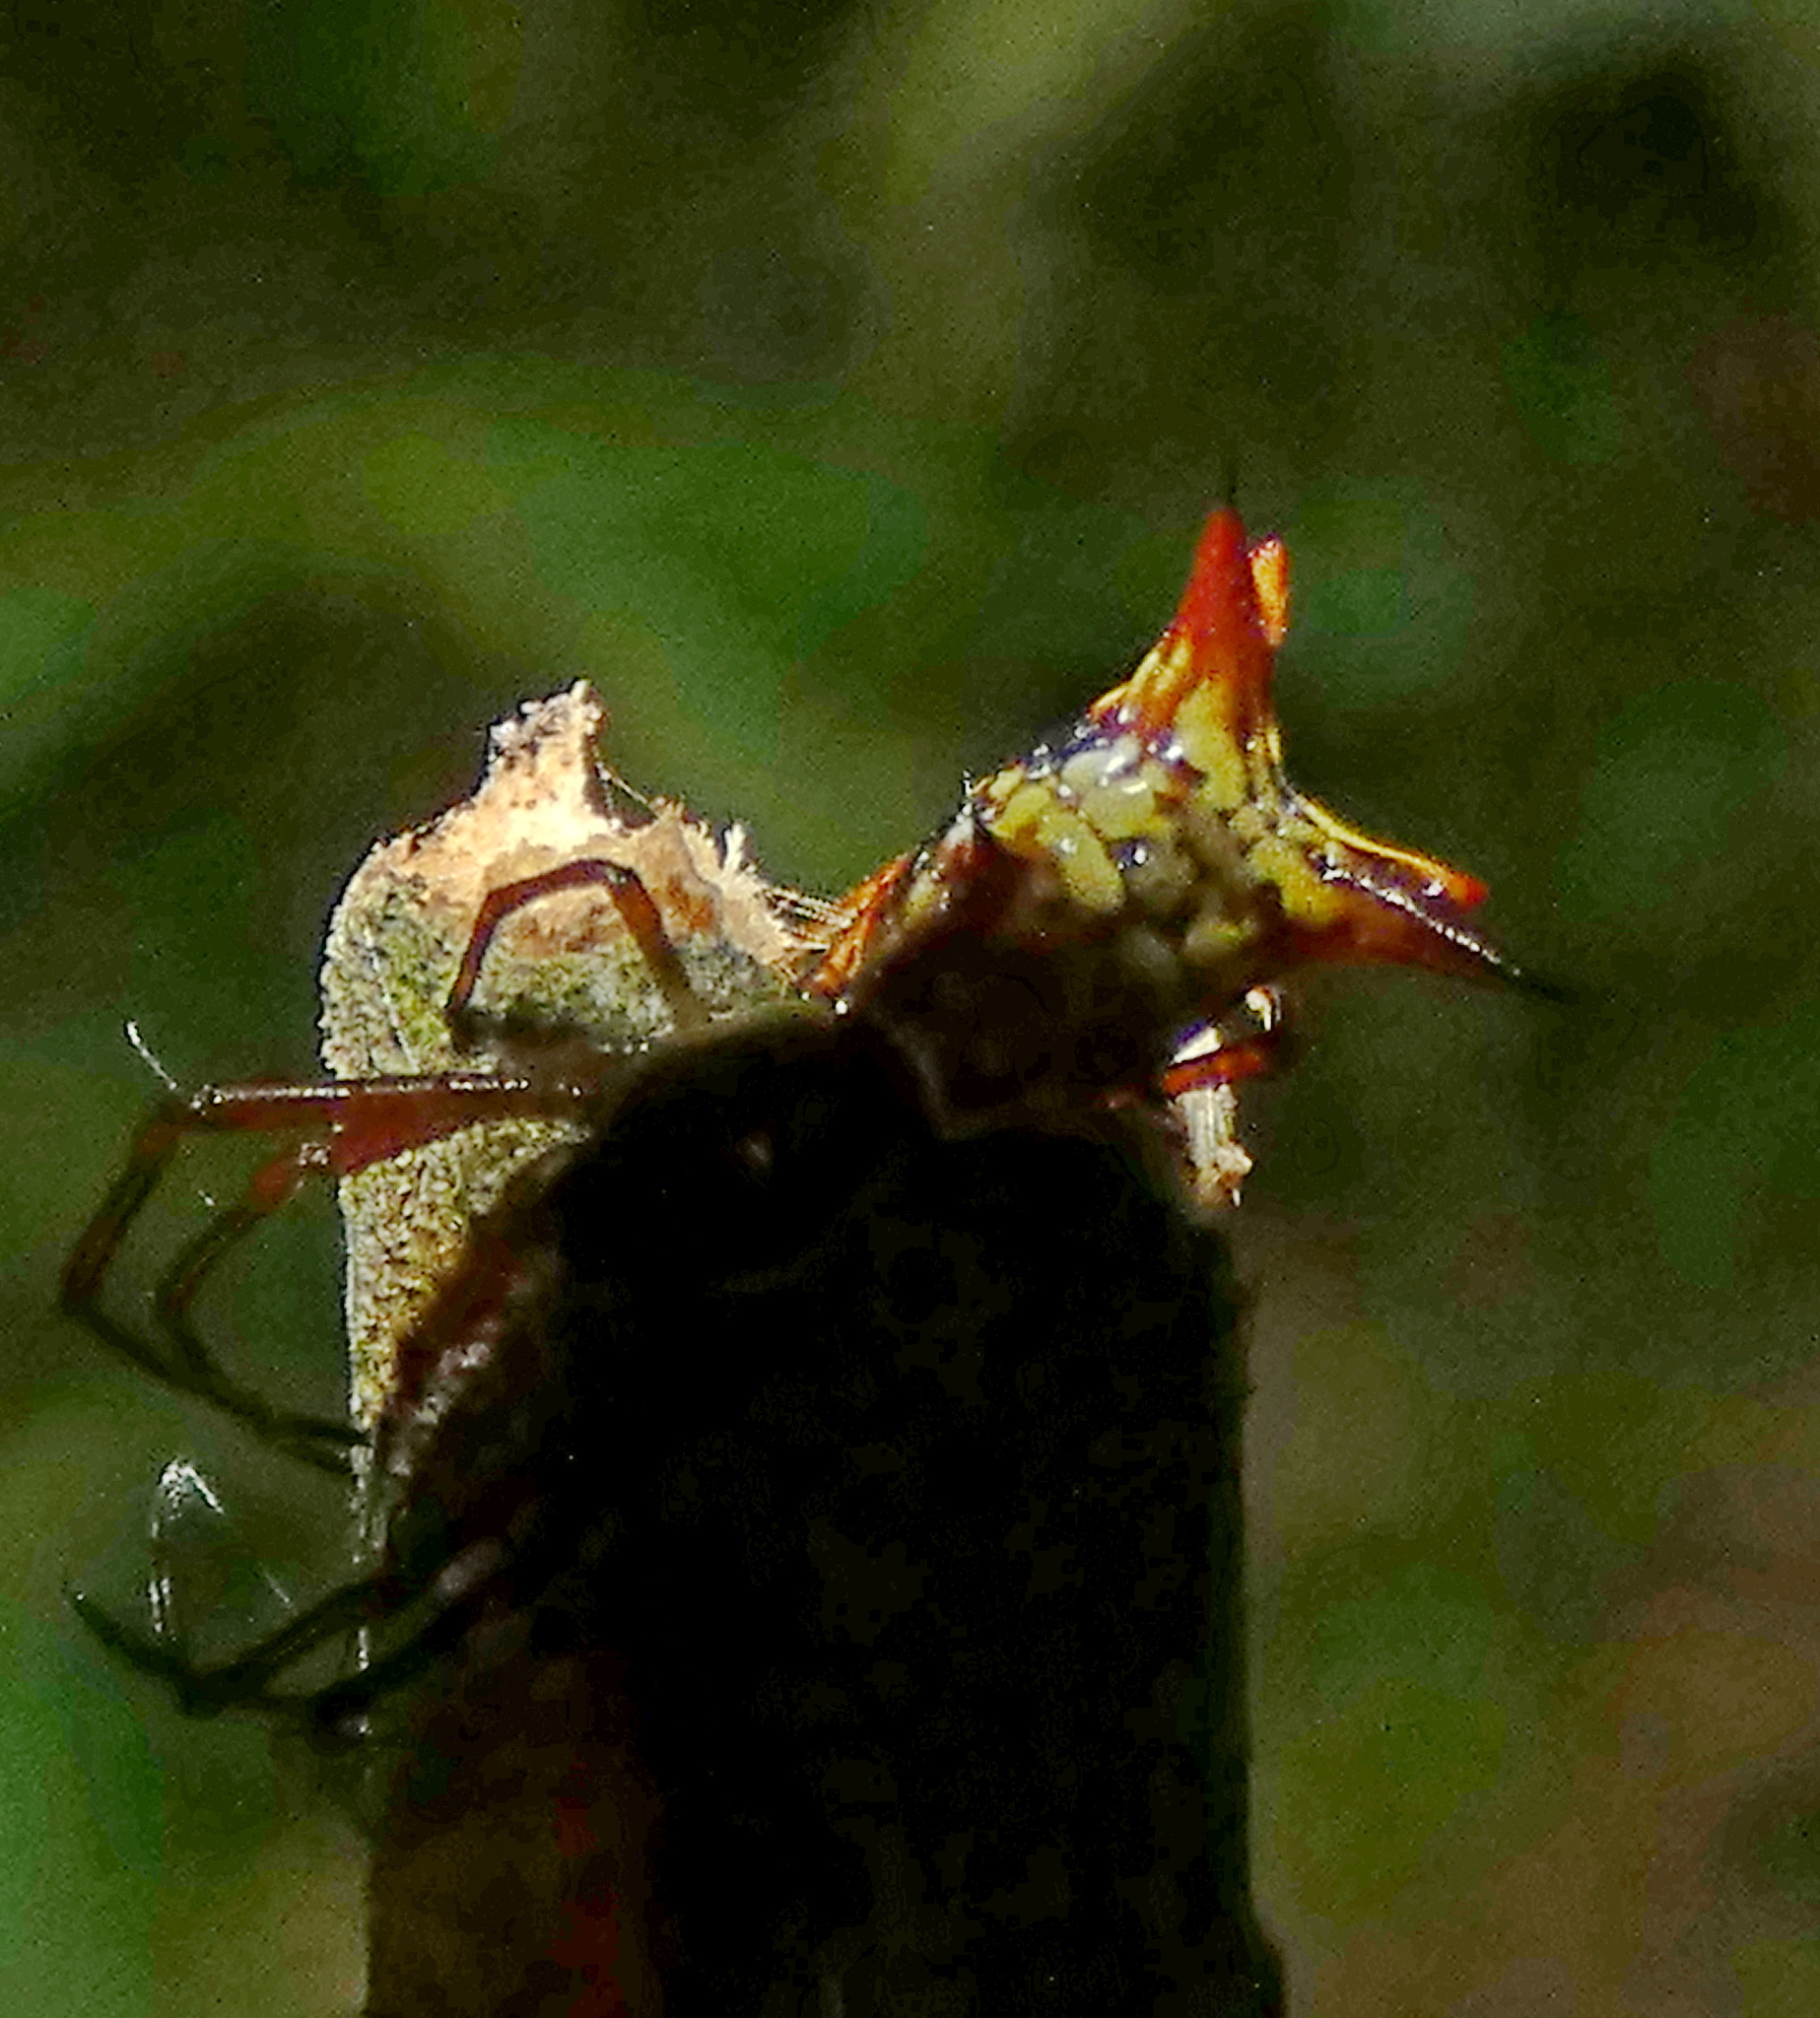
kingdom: Animalia
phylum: Arthropoda
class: Arachnida
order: Araneae
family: Araneidae
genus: Micrathena
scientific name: Micrathena fissispina
